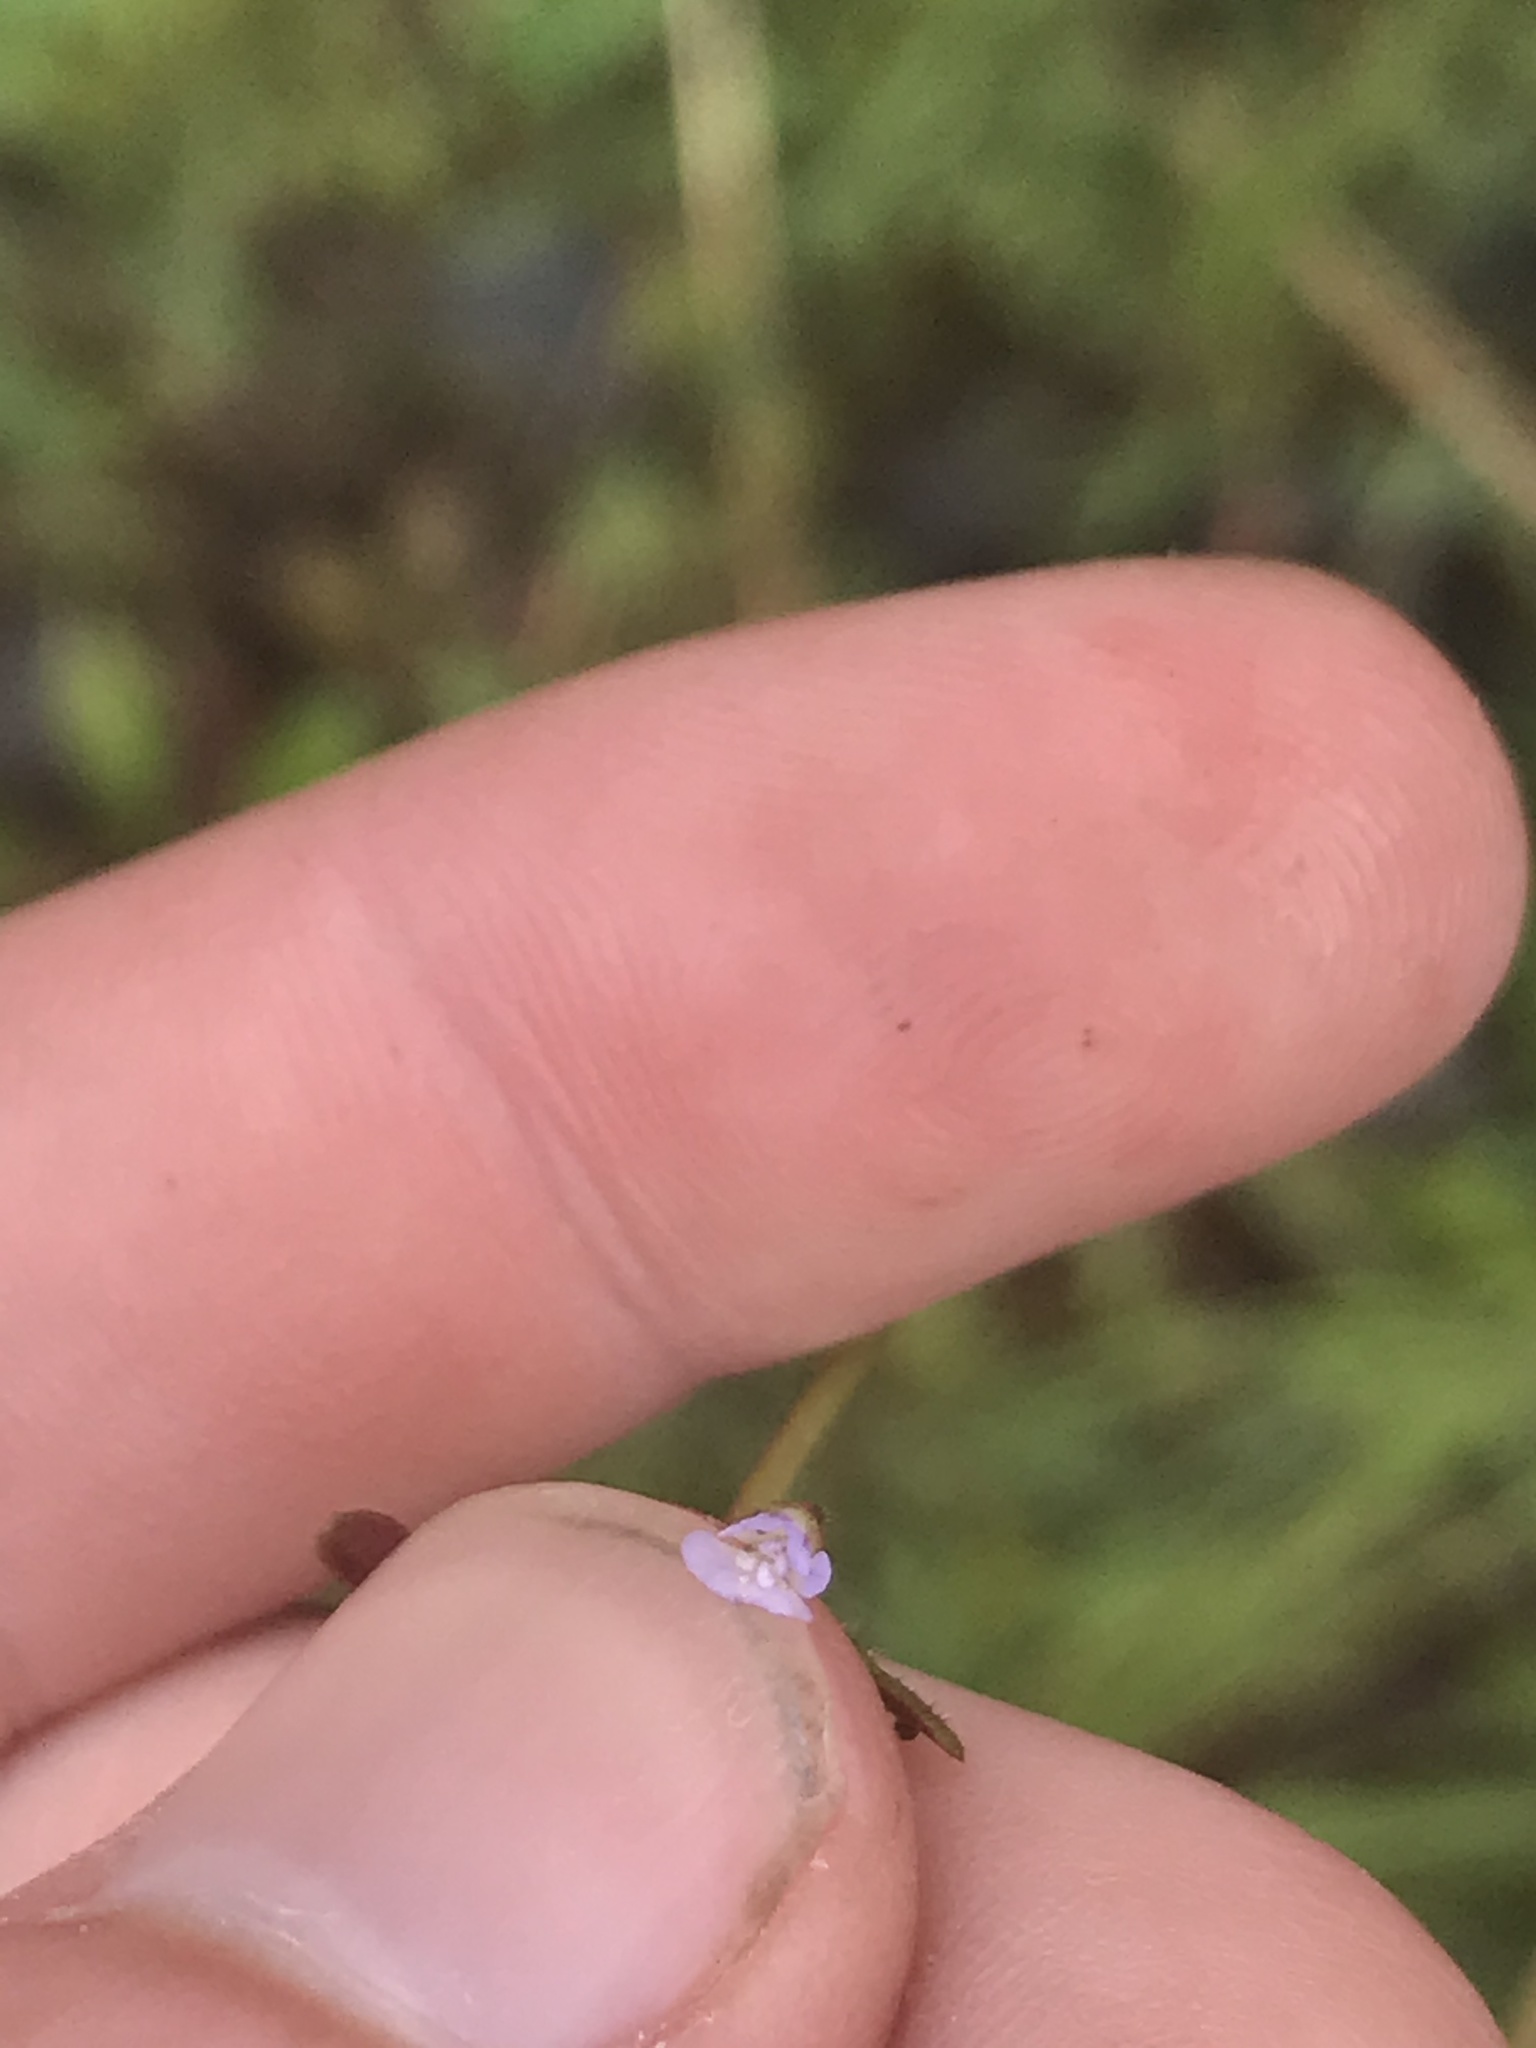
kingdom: Plantae
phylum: Tracheophyta
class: Magnoliopsida
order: Lamiales
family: Plantaginaceae
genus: Tonella
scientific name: Tonella tenella
